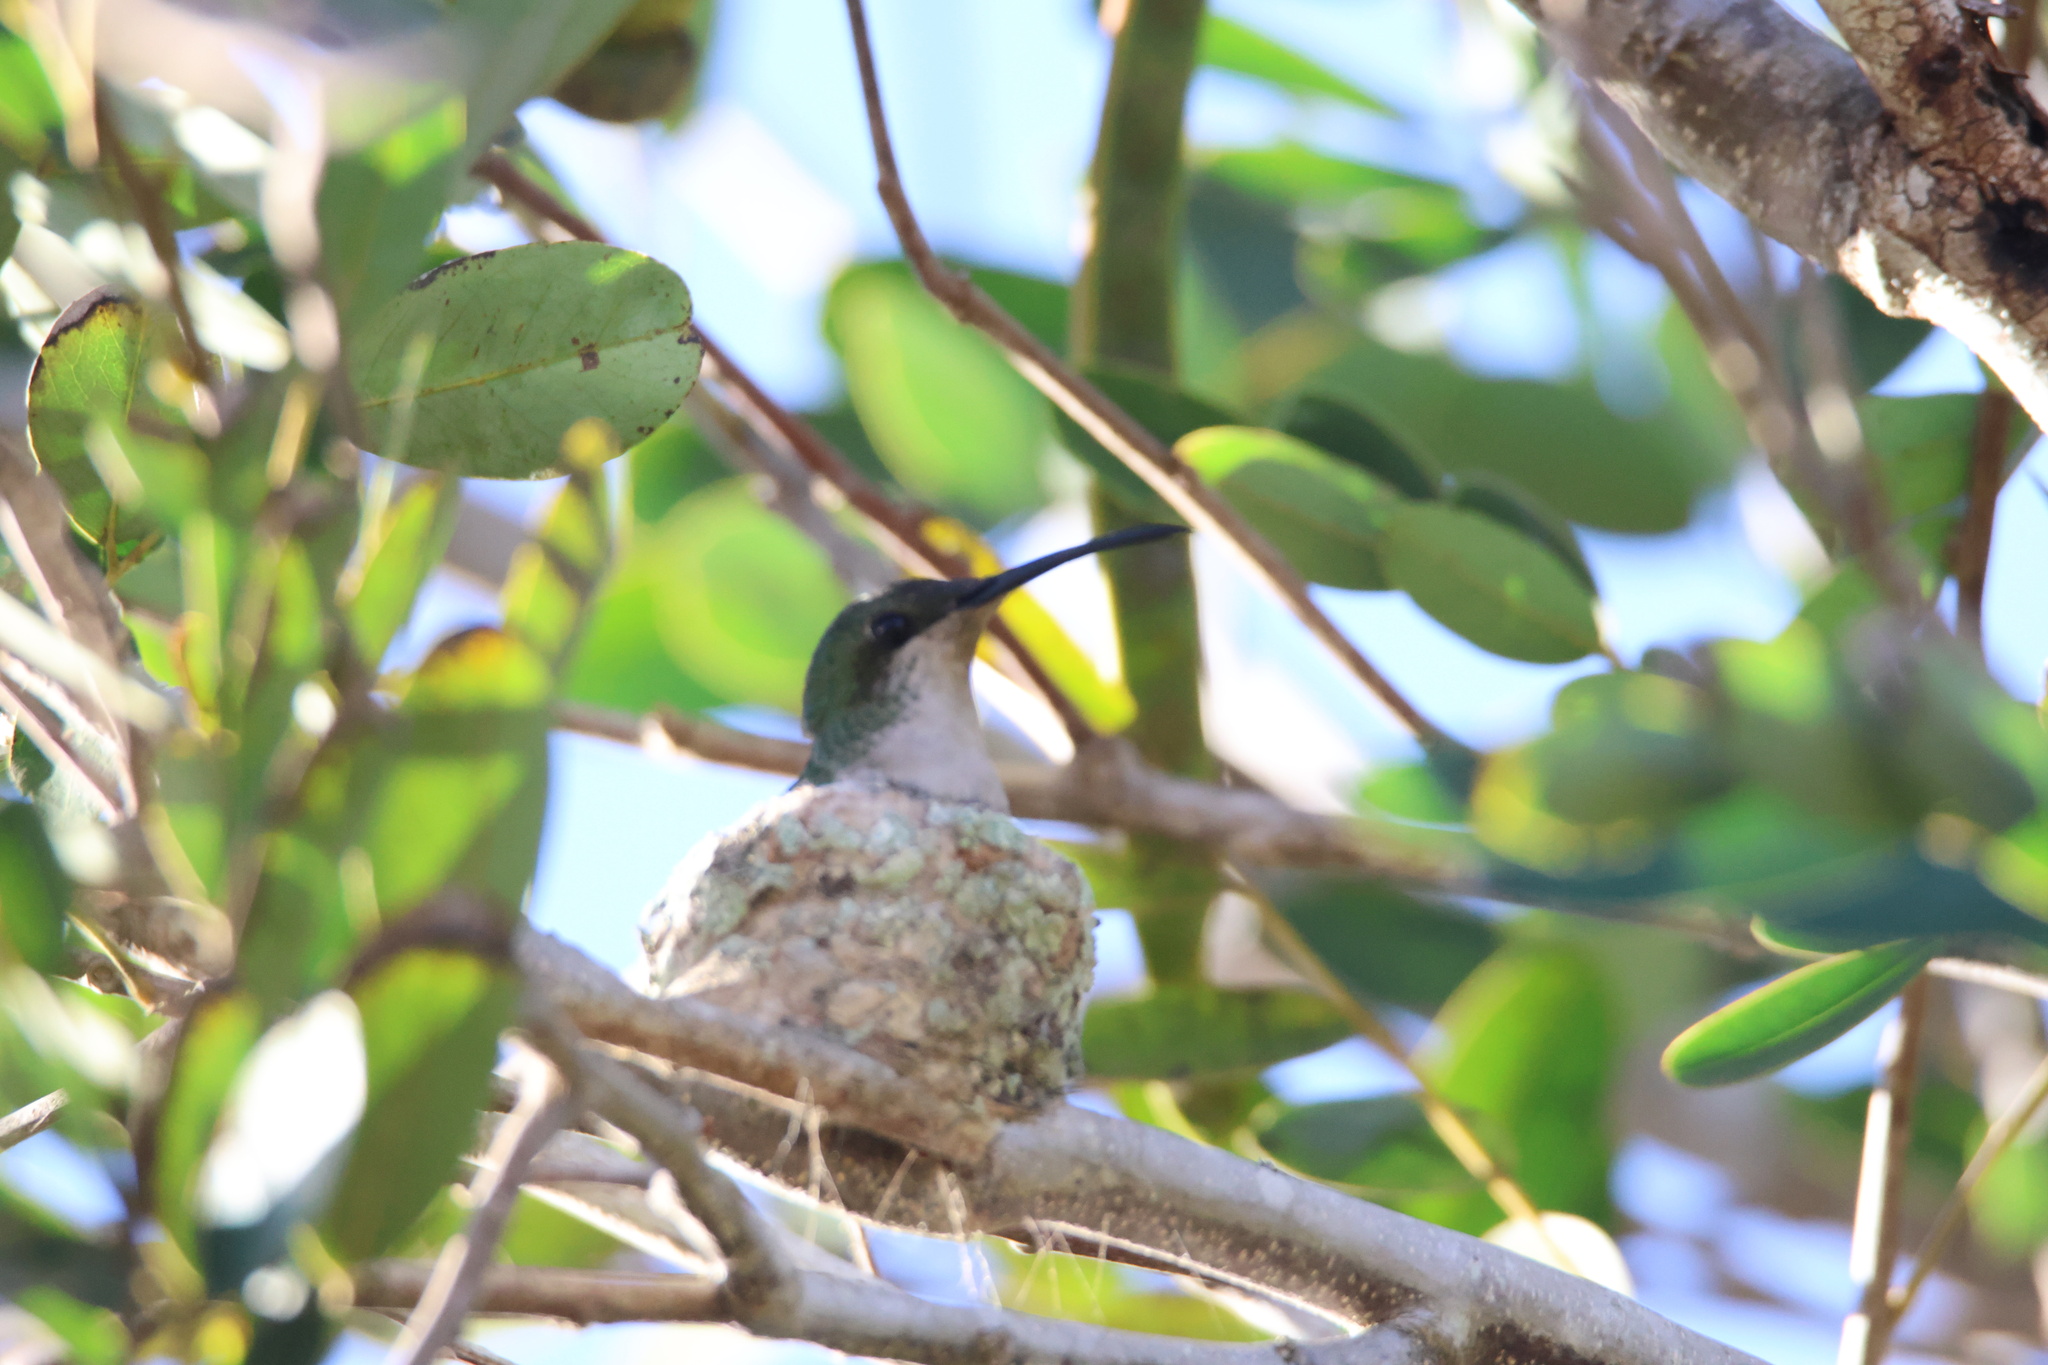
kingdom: Animalia
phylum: Chordata
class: Aves
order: Apodiformes
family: Trochilidae
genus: Anthracothorax
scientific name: Anthracothorax dominicus
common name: Antillean mango
